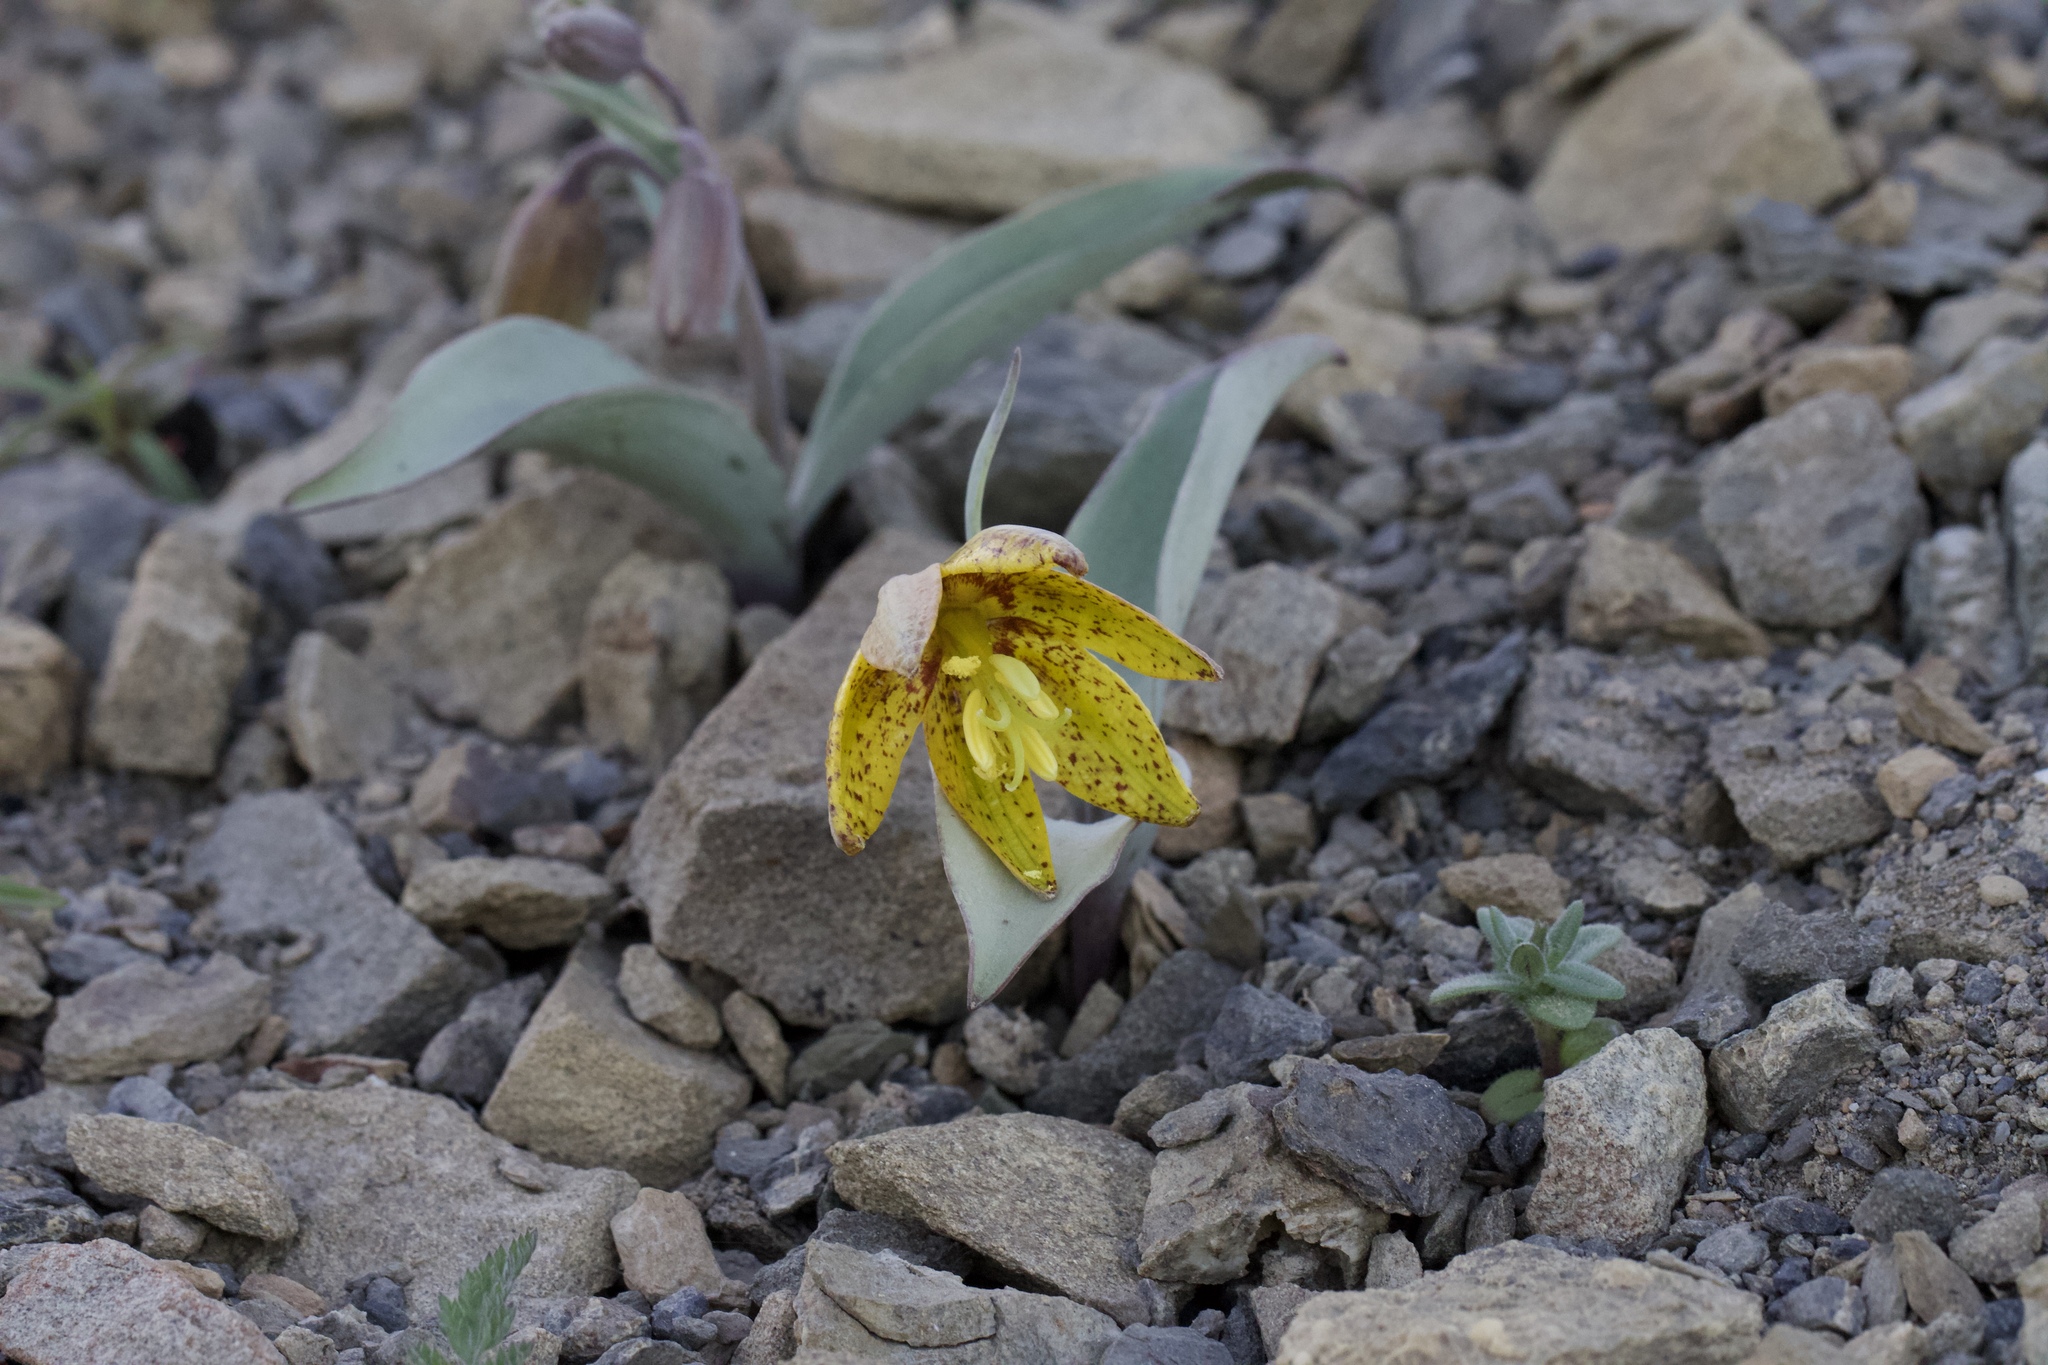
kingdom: Plantae
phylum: Tracheophyta
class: Liliopsida
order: Liliales
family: Liliaceae
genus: Fritillaria
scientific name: Fritillaria glauca
